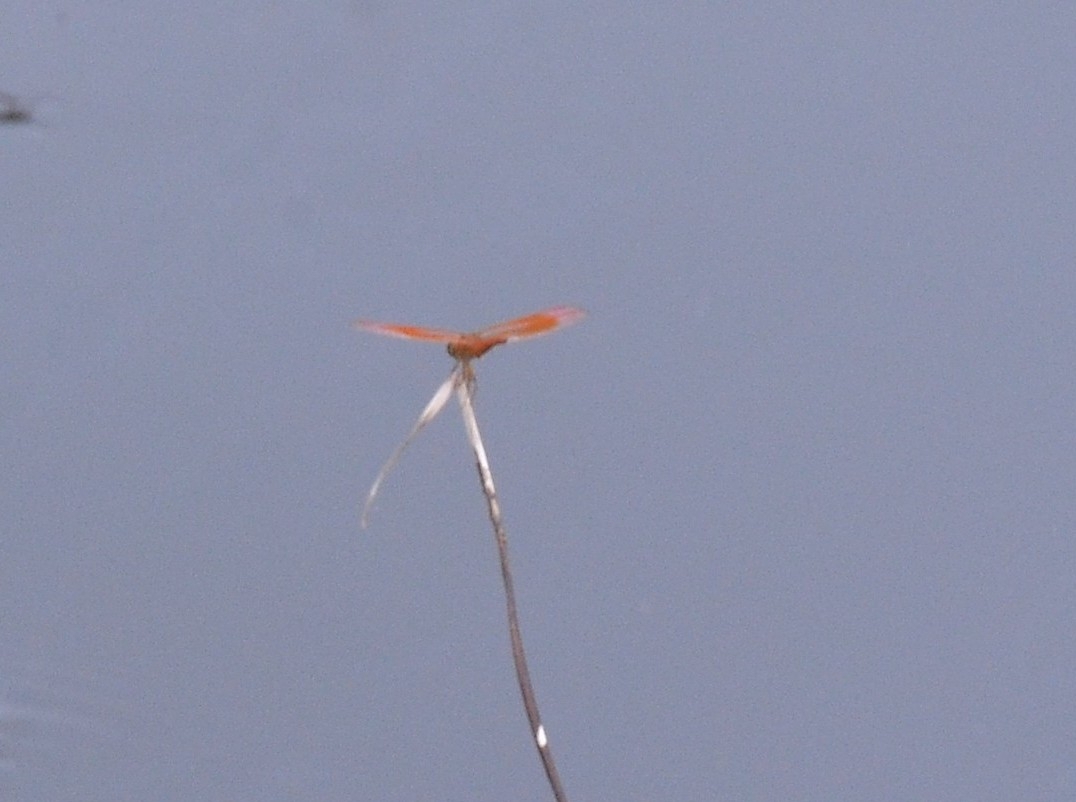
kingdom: Animalia
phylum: Arthropoda
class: Insecta
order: Odonata
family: Libellulidae
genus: Brachythemis
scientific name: Brachythemis contaminata
